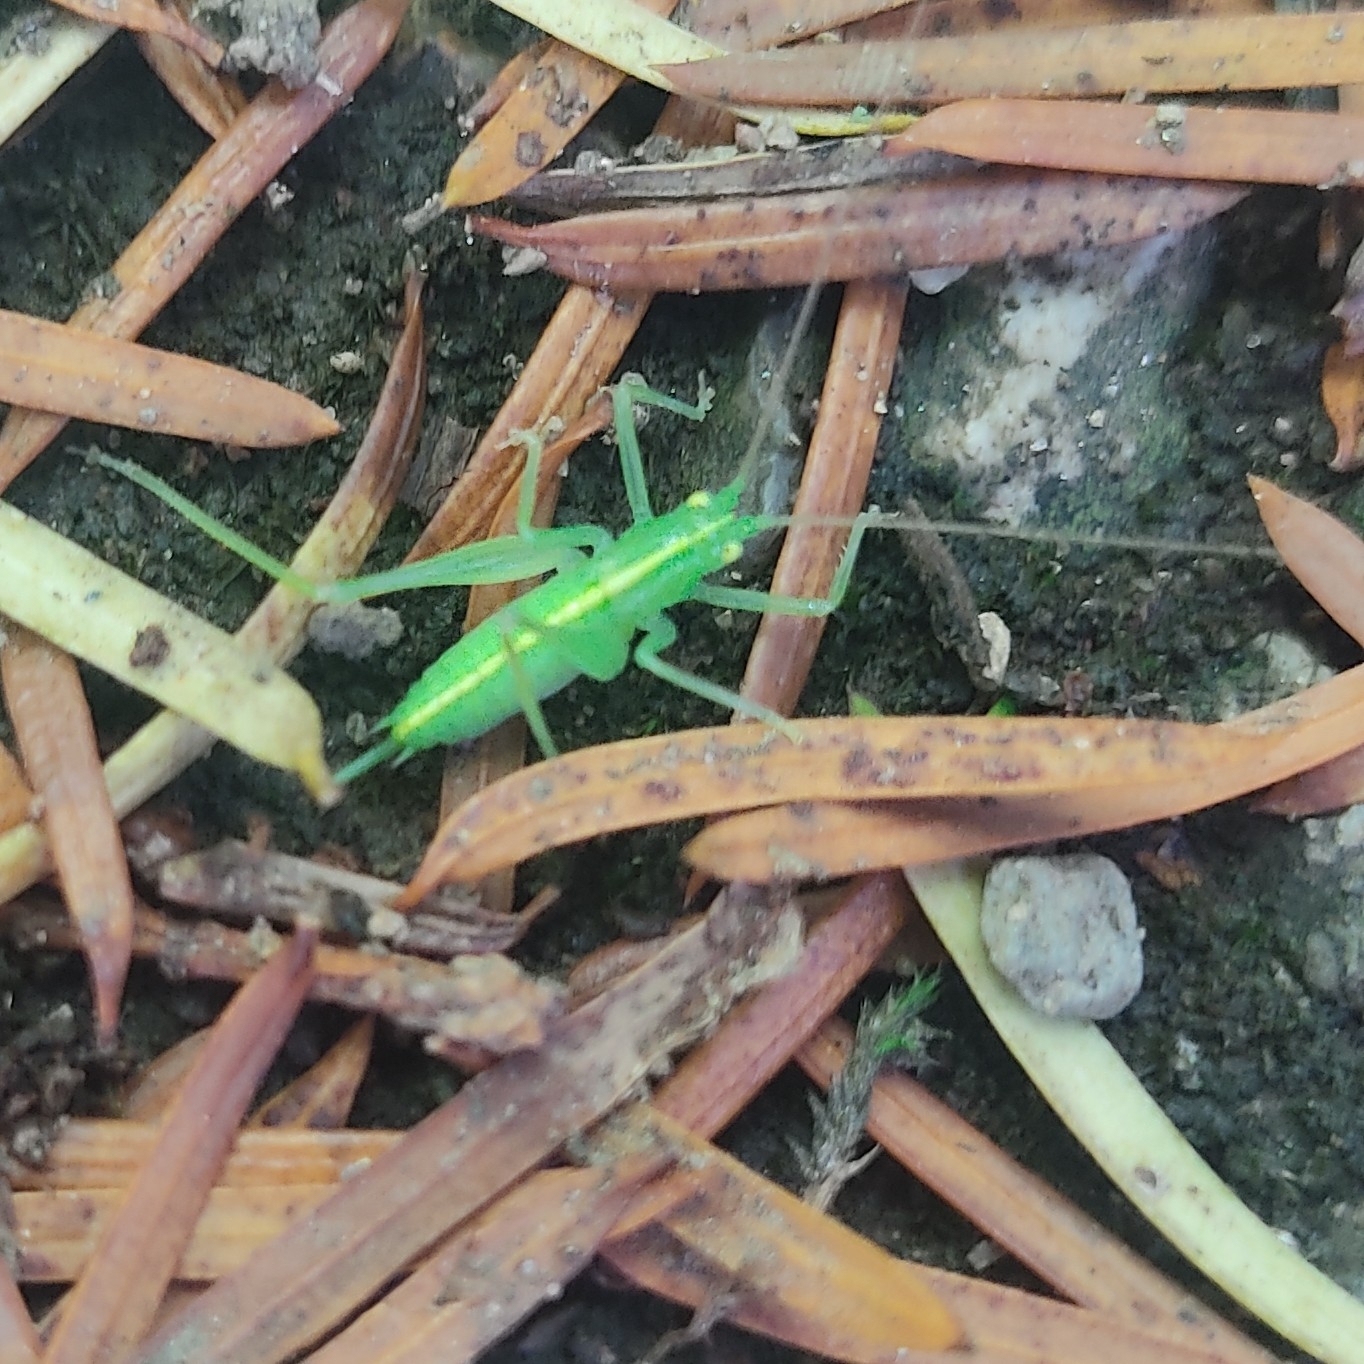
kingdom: Animalia
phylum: Arthropoda
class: Insecta
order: Orthoptera
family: Tettigoniidae
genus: Meconema
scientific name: Meconema meridionale
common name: Southern oak bush-cricket
